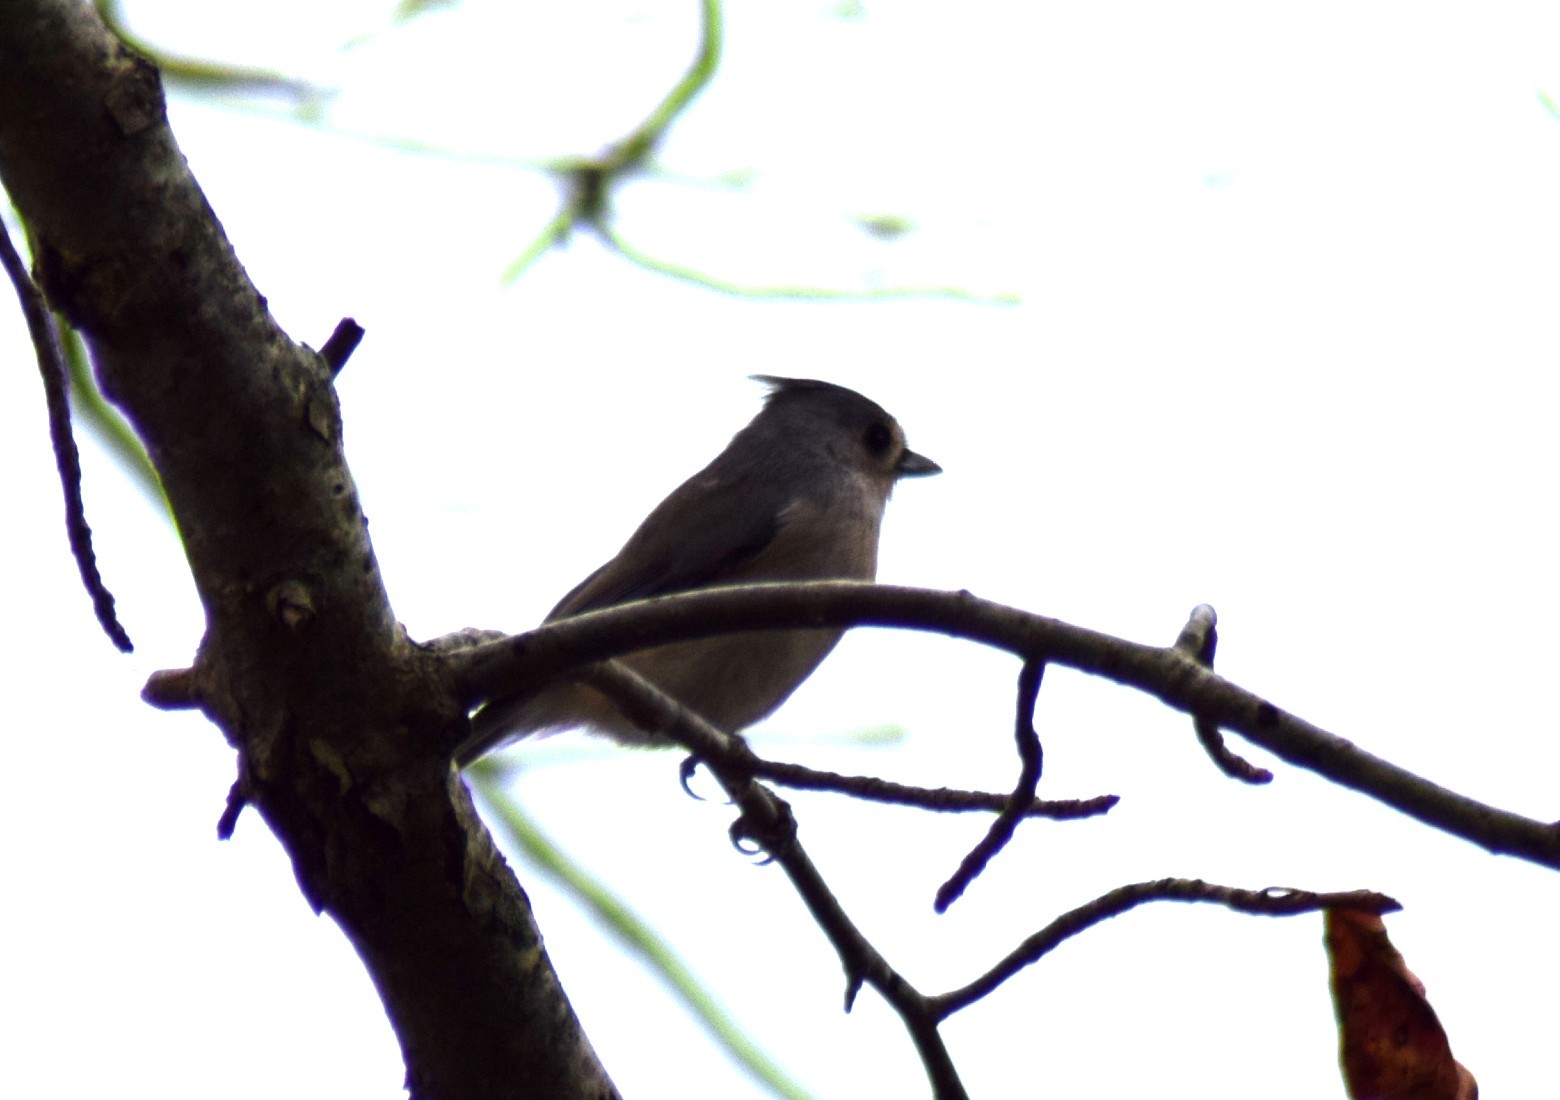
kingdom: Animalia
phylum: Chordata
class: Aves
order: Passeriformes
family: Paridae
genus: Baeolophus
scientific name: Baeolophus bicolor
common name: Tufted titmouse
